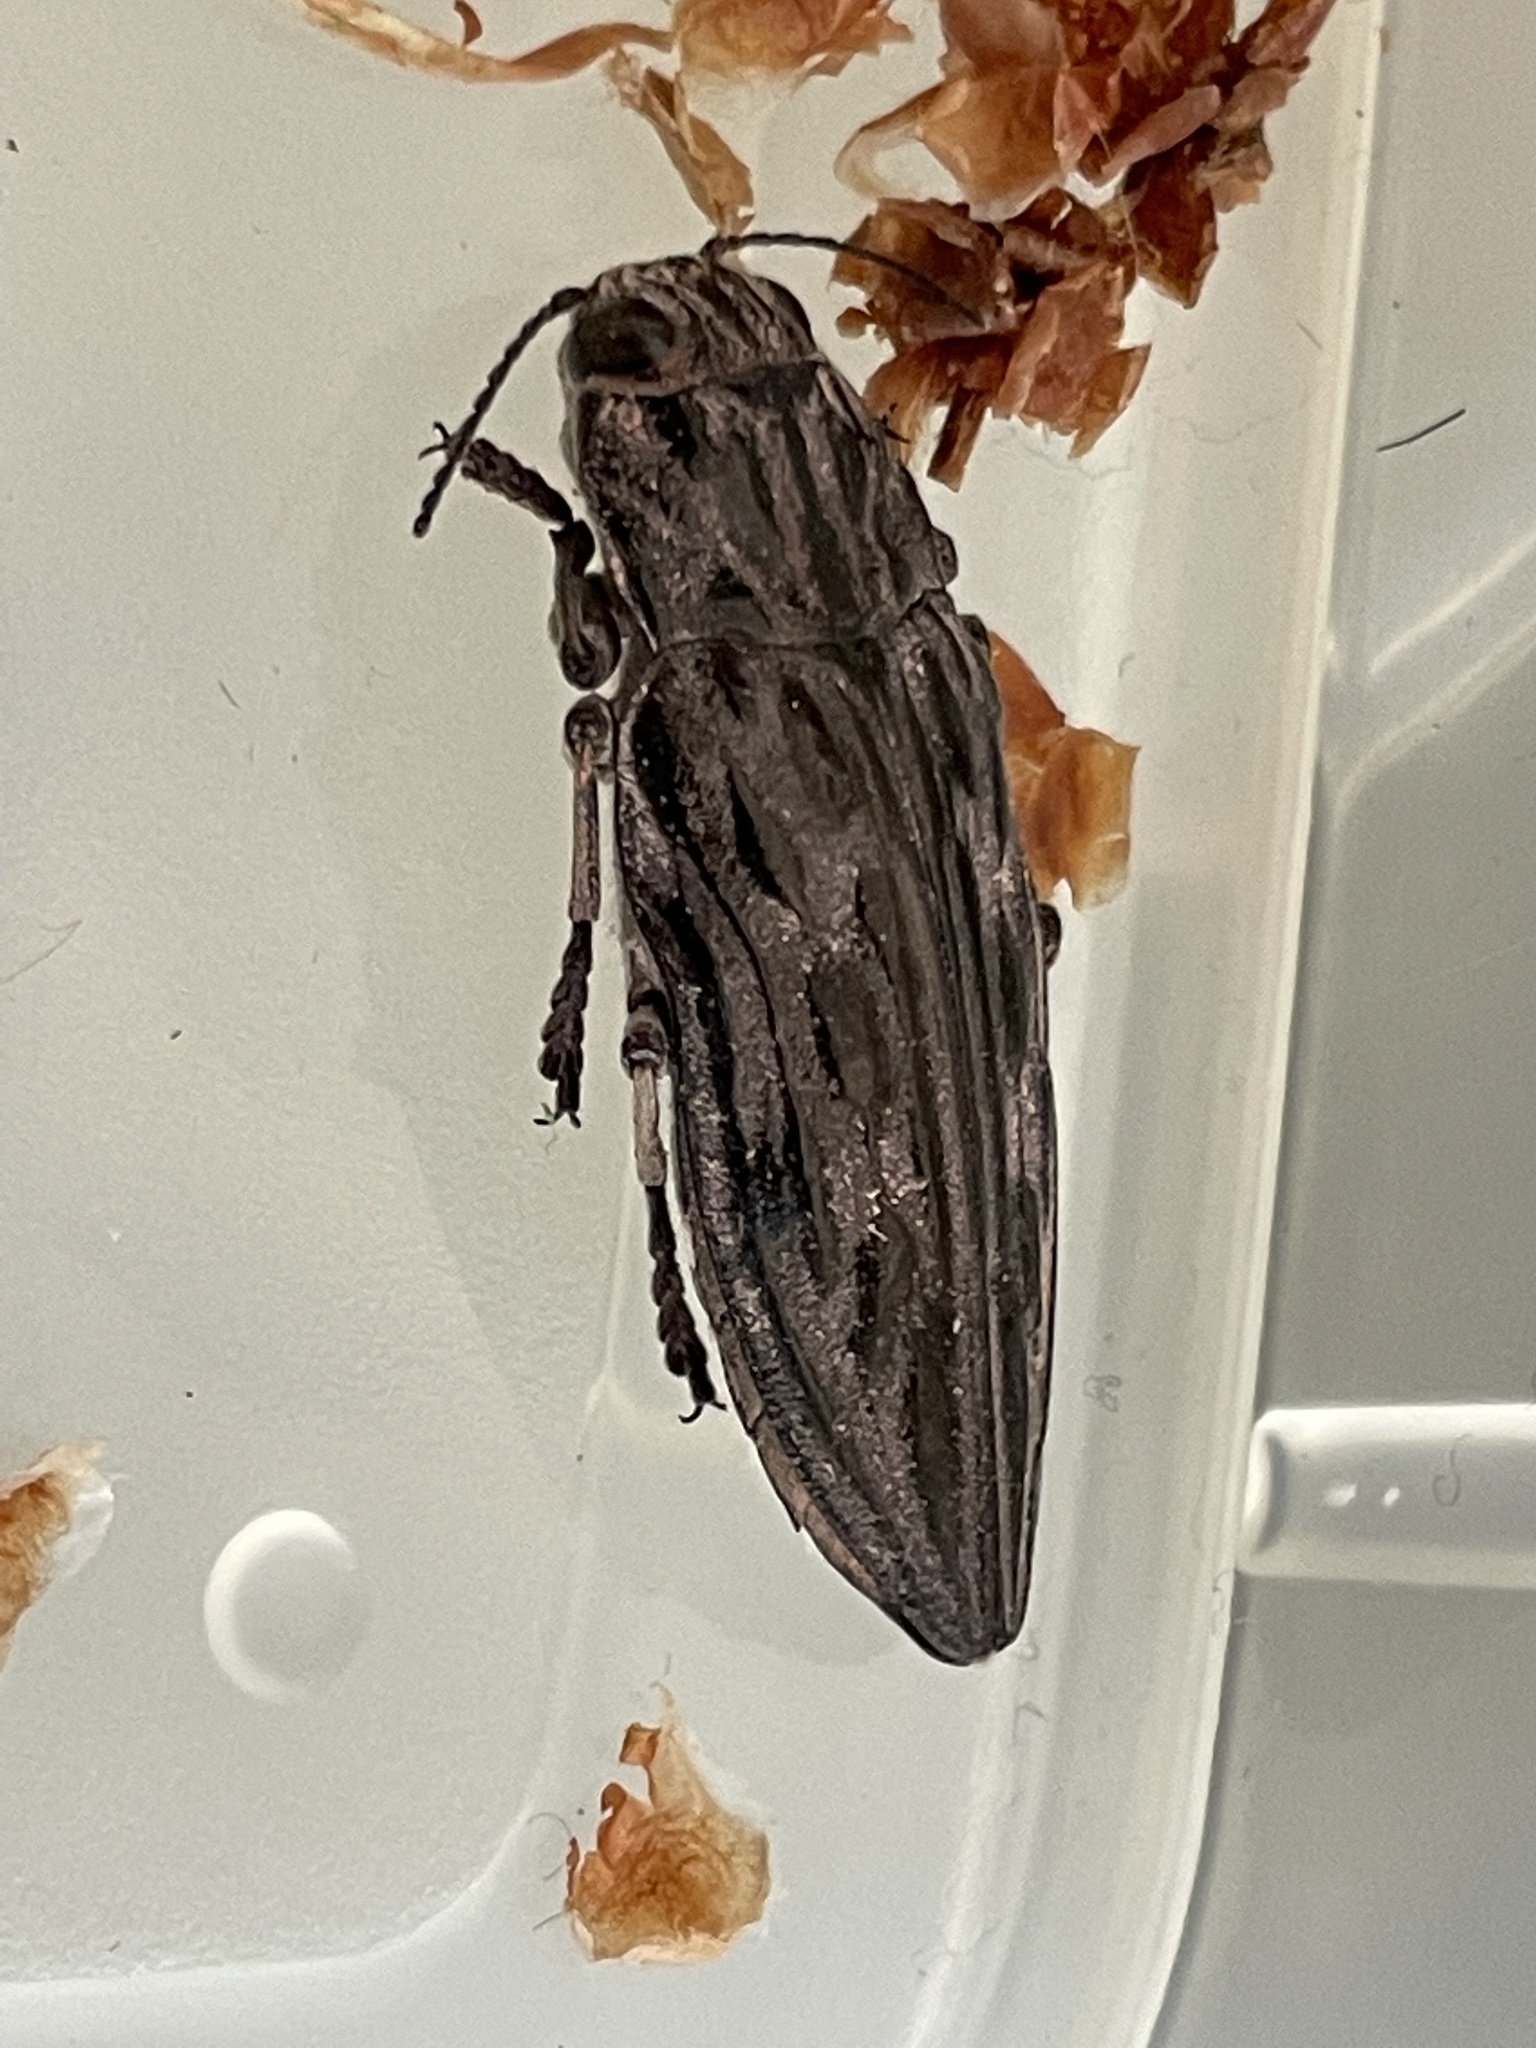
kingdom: Animalia
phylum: Arthropoda
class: Insecta
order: Coleoptera
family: Buprestidae
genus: Chalcophora
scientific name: Chalcophora angulicollis
